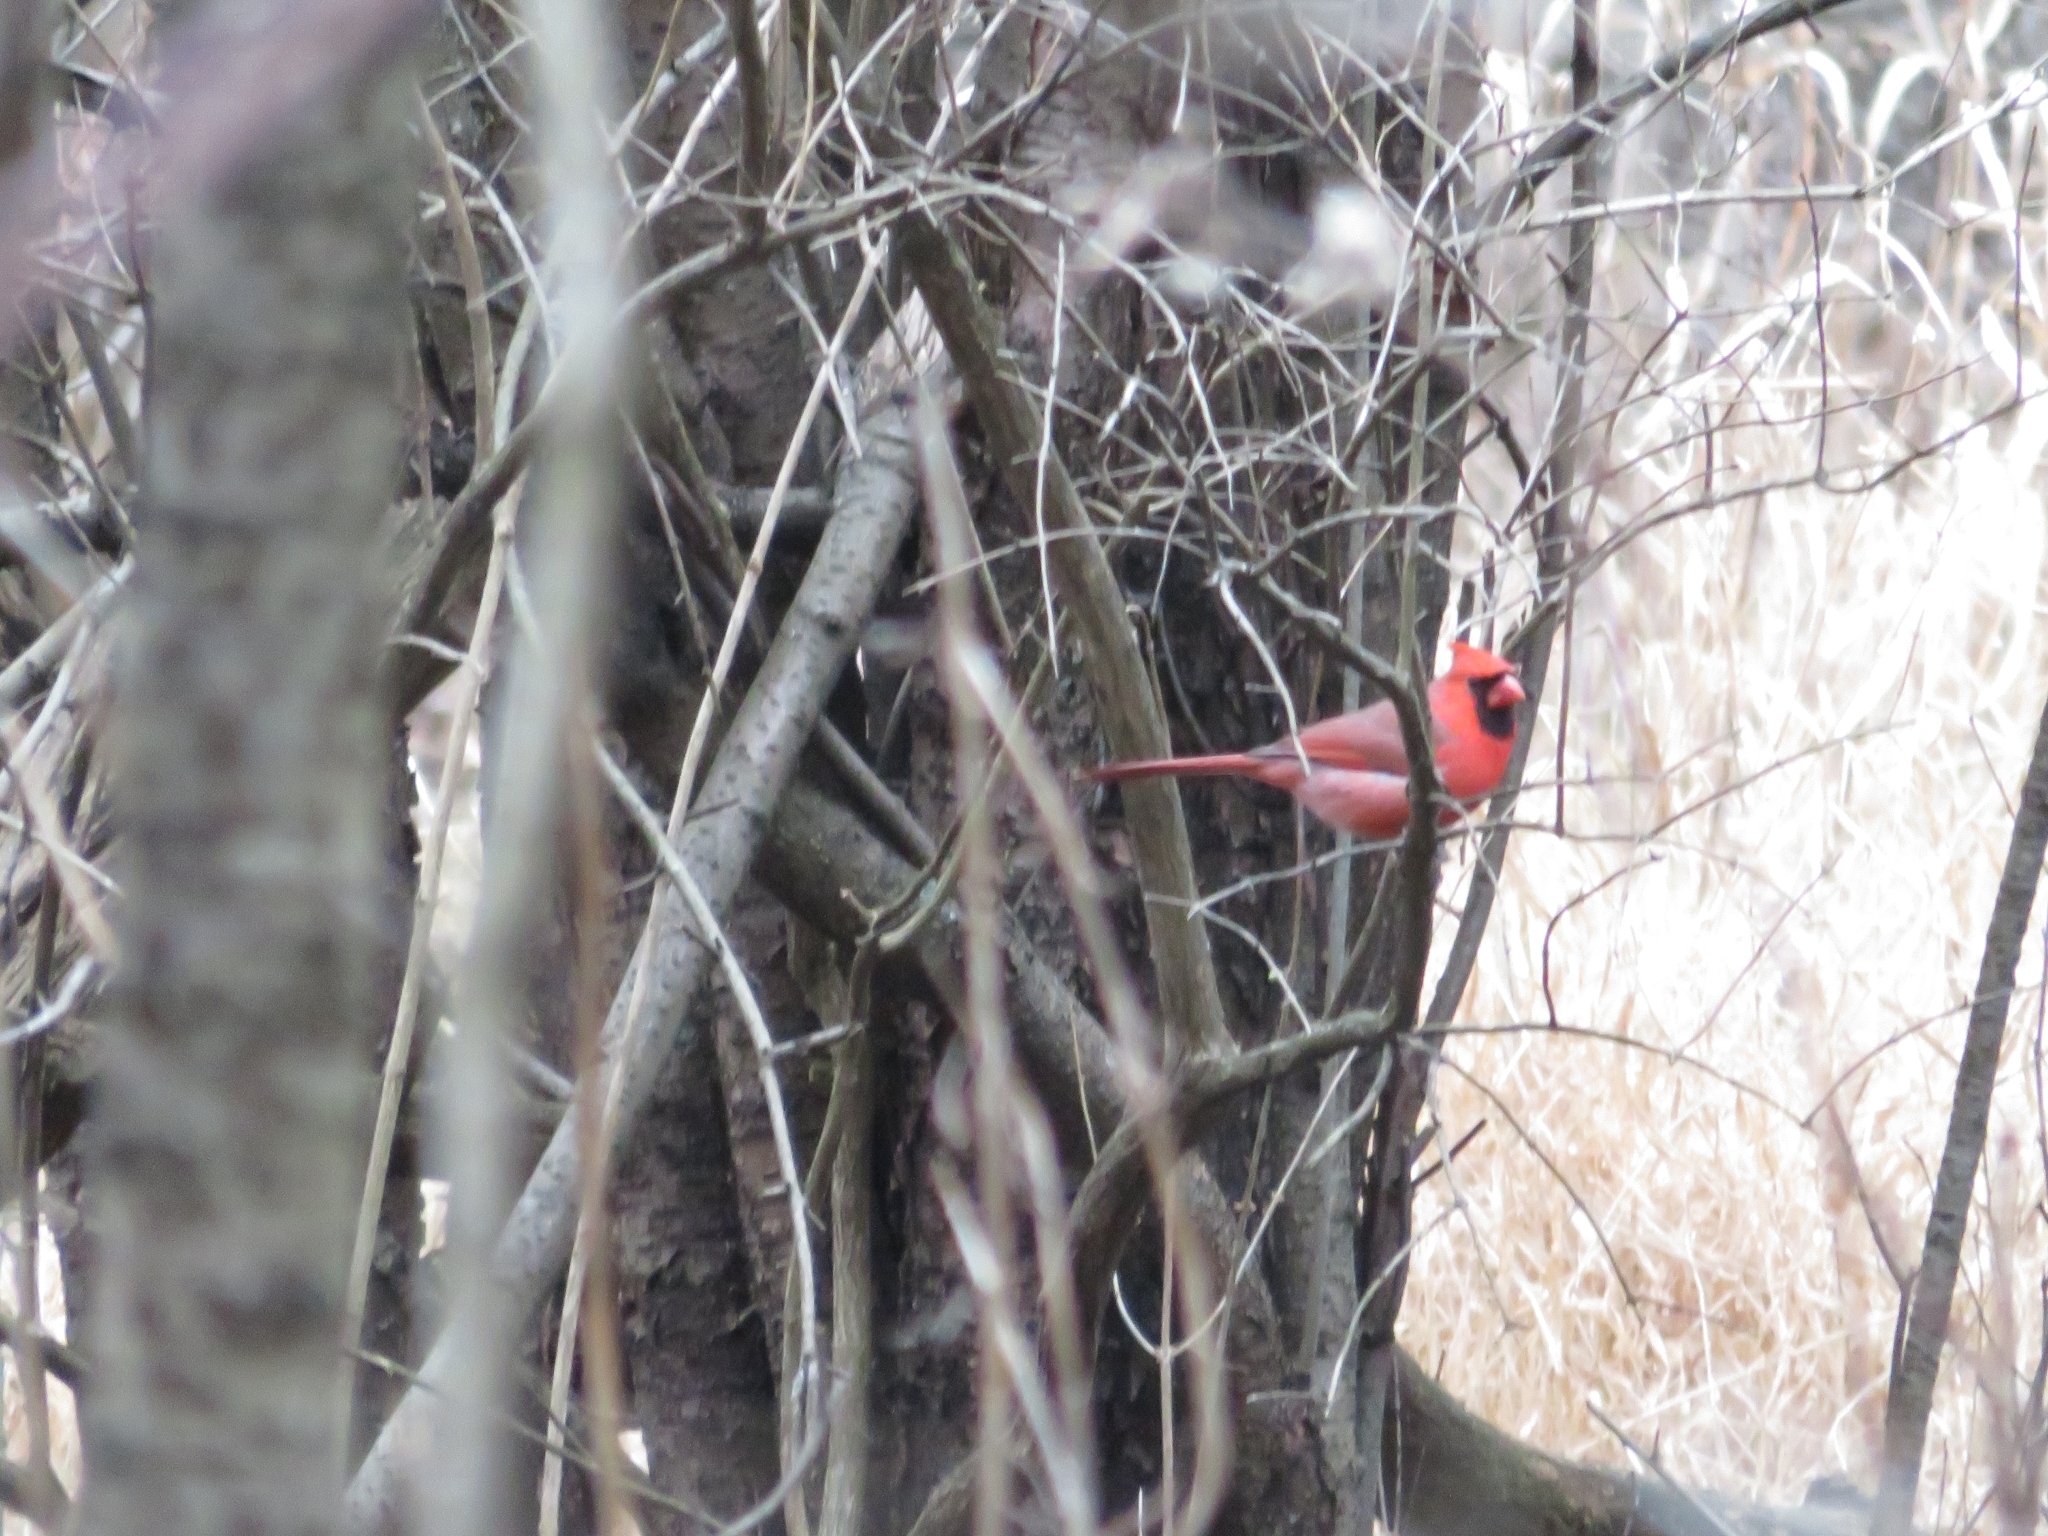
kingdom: Animalia
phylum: Chordata
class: Aves
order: Passeriformes
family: Cardinalidae
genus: Cardinalis
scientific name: Cardinalis cardinalis
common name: Northern cardinal
